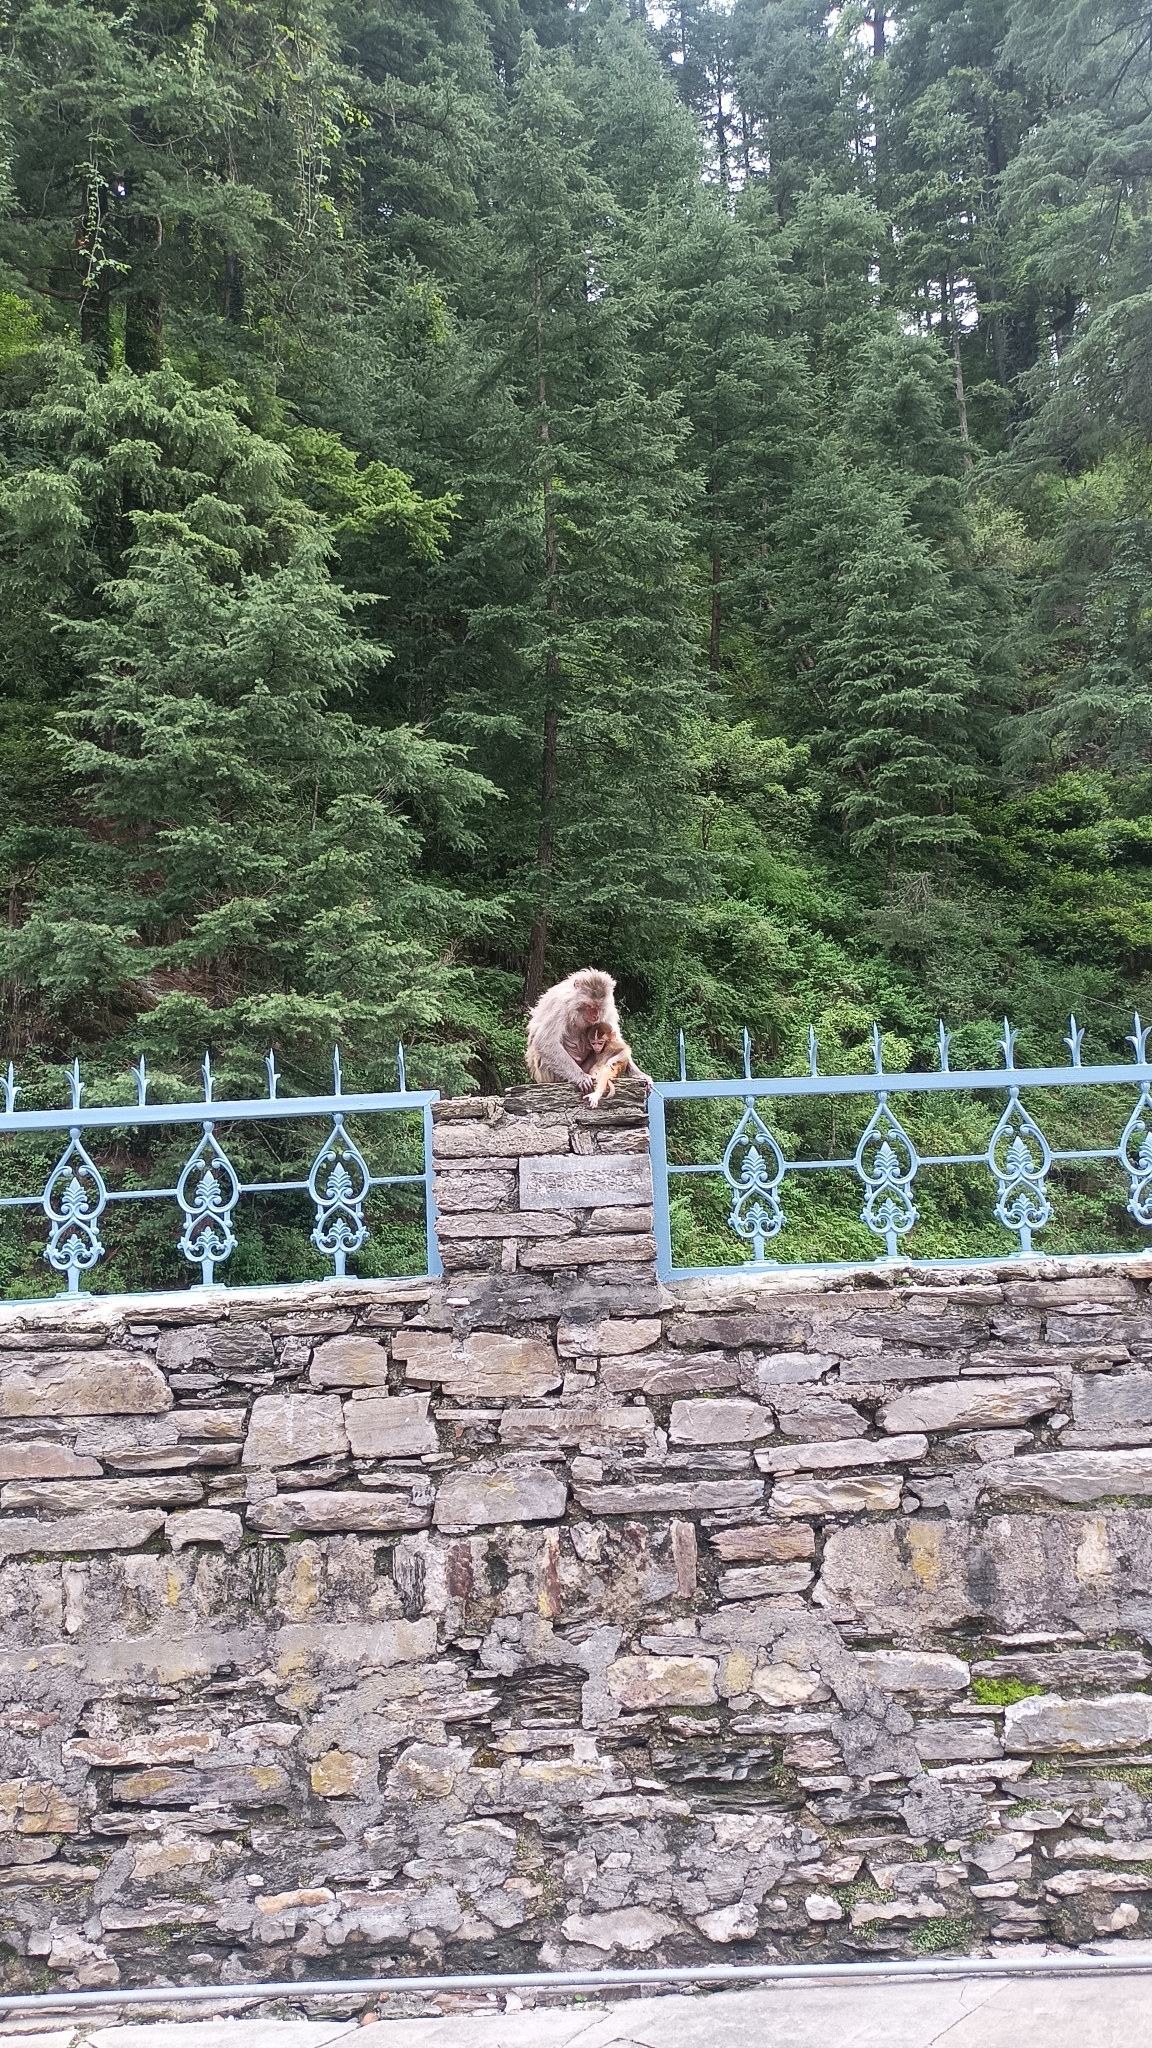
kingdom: Animalia
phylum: Chordata
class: Mammalia
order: Primates
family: Cercopithecidae
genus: Macaca
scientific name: Macaca mulatta
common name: Rhesus monkey
